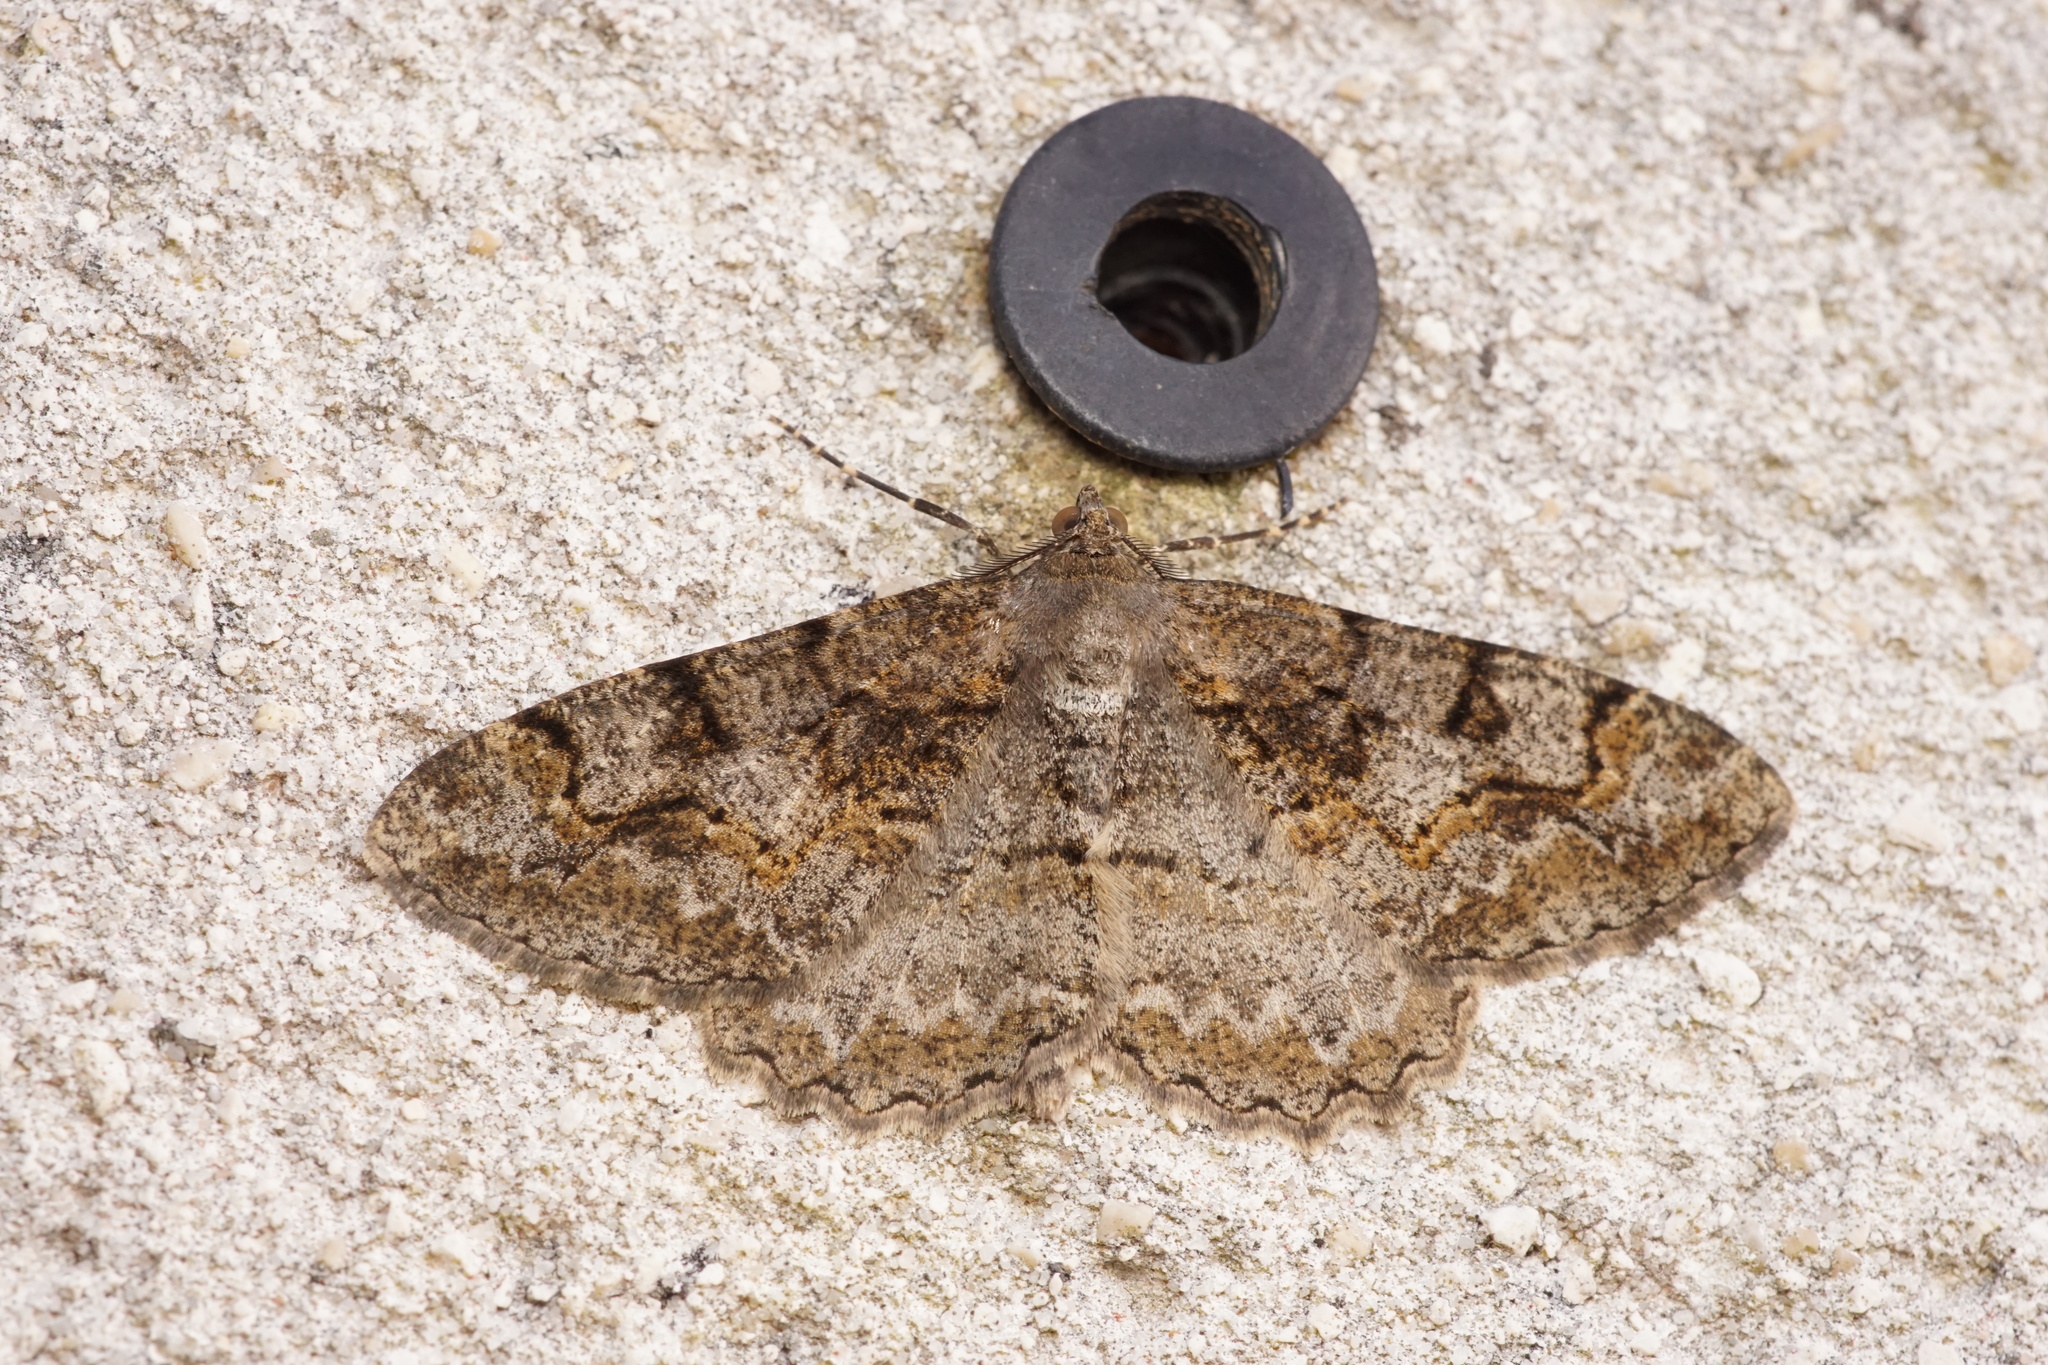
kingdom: Animalia
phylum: Arthropoda
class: Insecta
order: Lepidoptera
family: Geometridae
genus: Alcis
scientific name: Alcis repandata
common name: Mottled beauty
